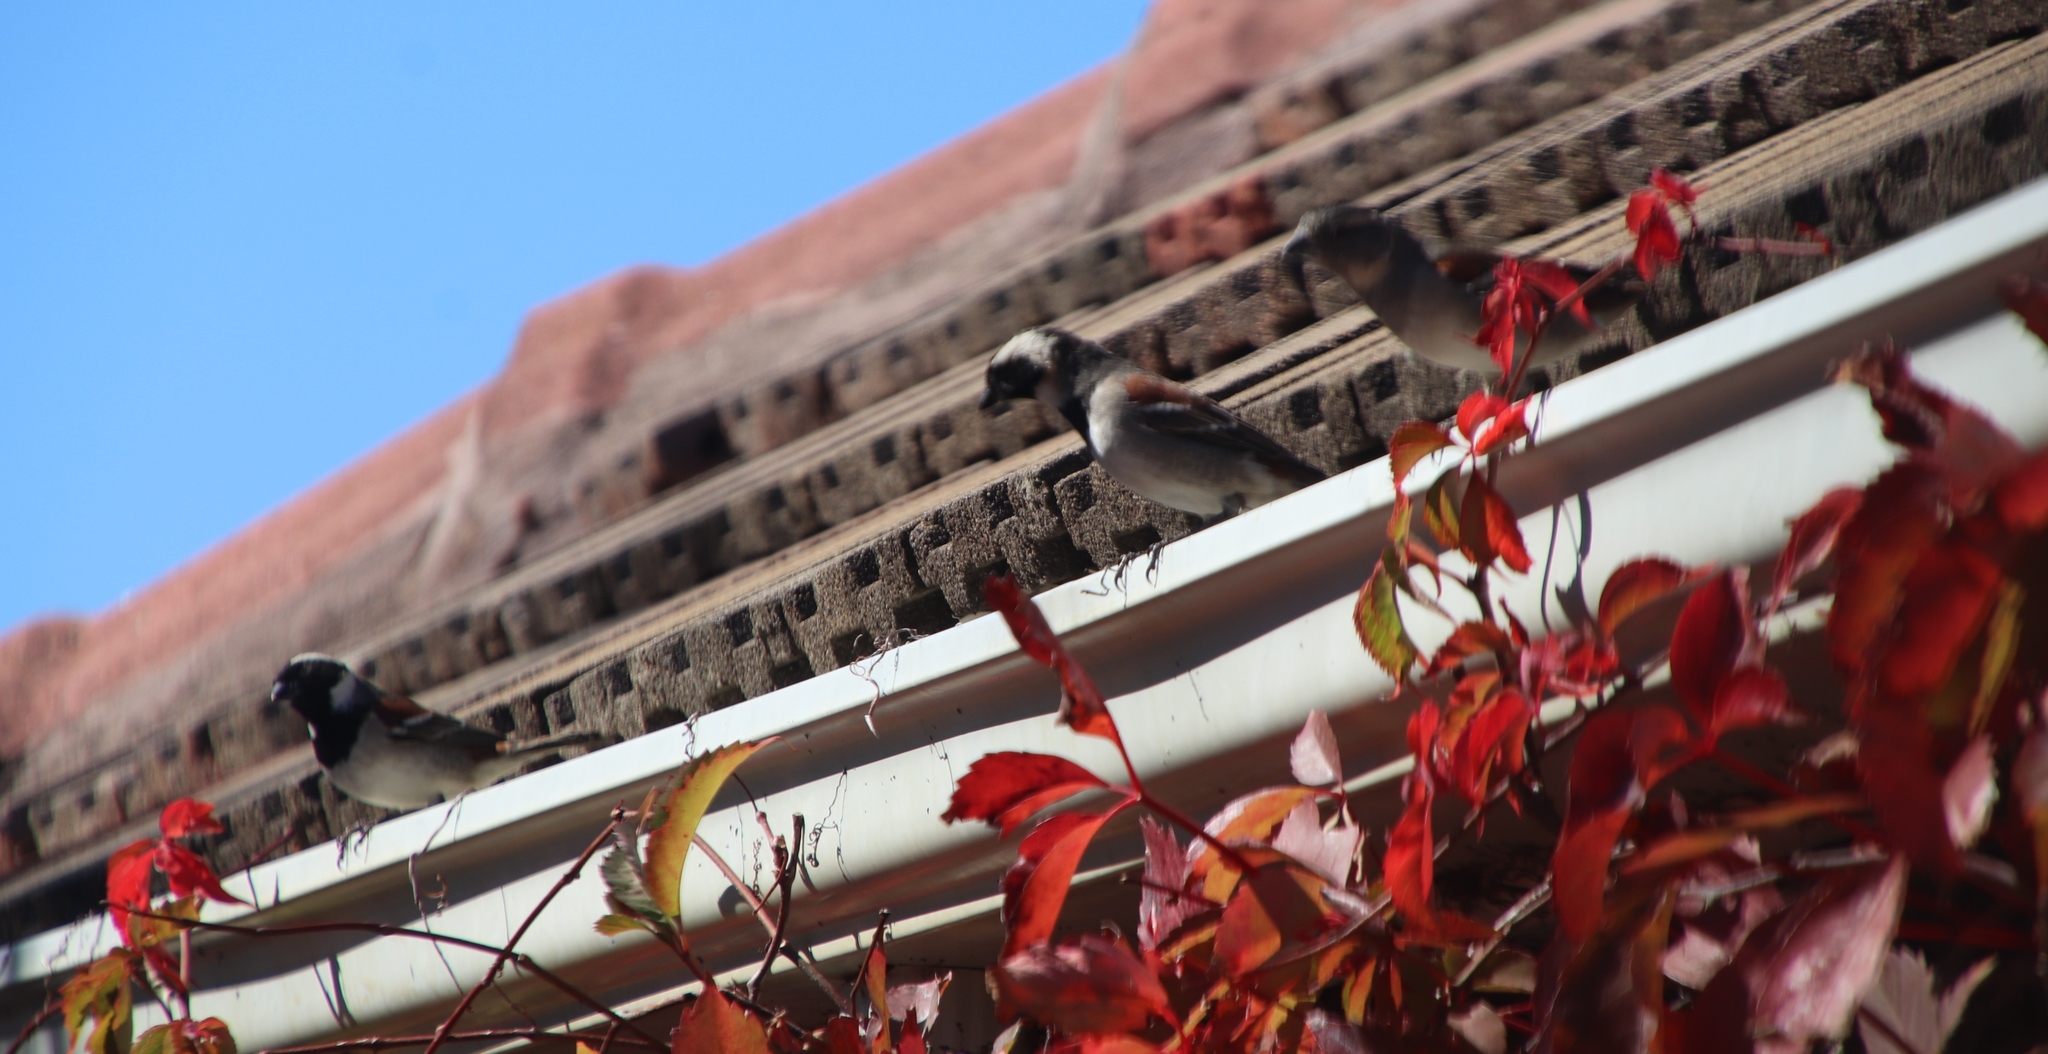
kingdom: Animalia
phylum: Chordata
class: Aves
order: Passeriformes
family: Passeridae
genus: Passer
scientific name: Passer melanurus
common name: Cape sparrow
